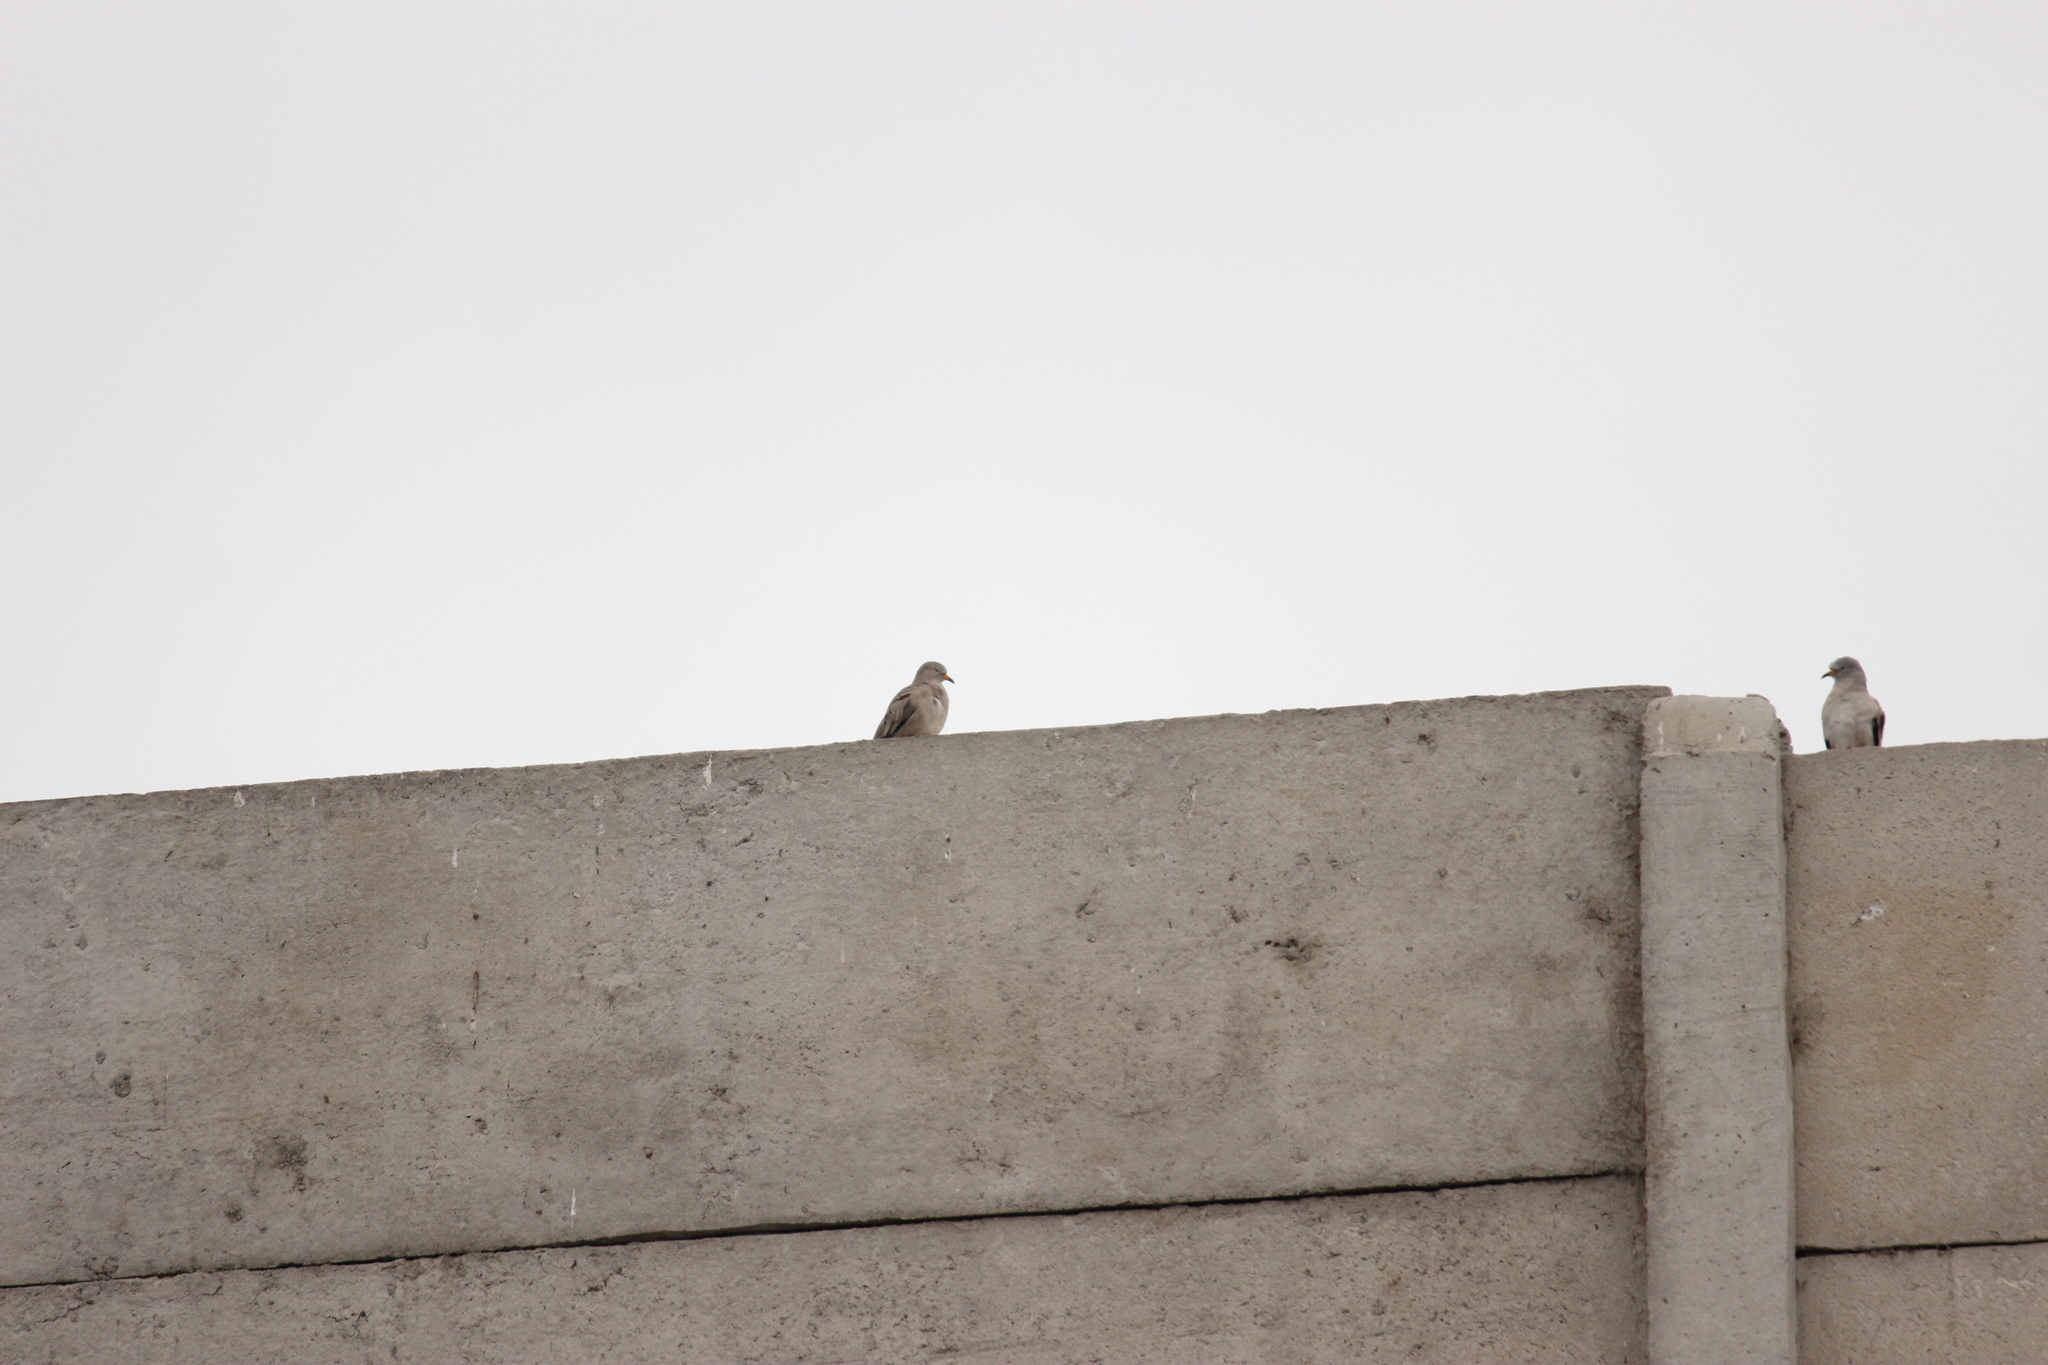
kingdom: Animalia
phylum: Chordata
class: Aves
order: Columbiformes
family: Columbidae
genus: Columbina
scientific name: Columbina cruziana
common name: Croaking ground dove
